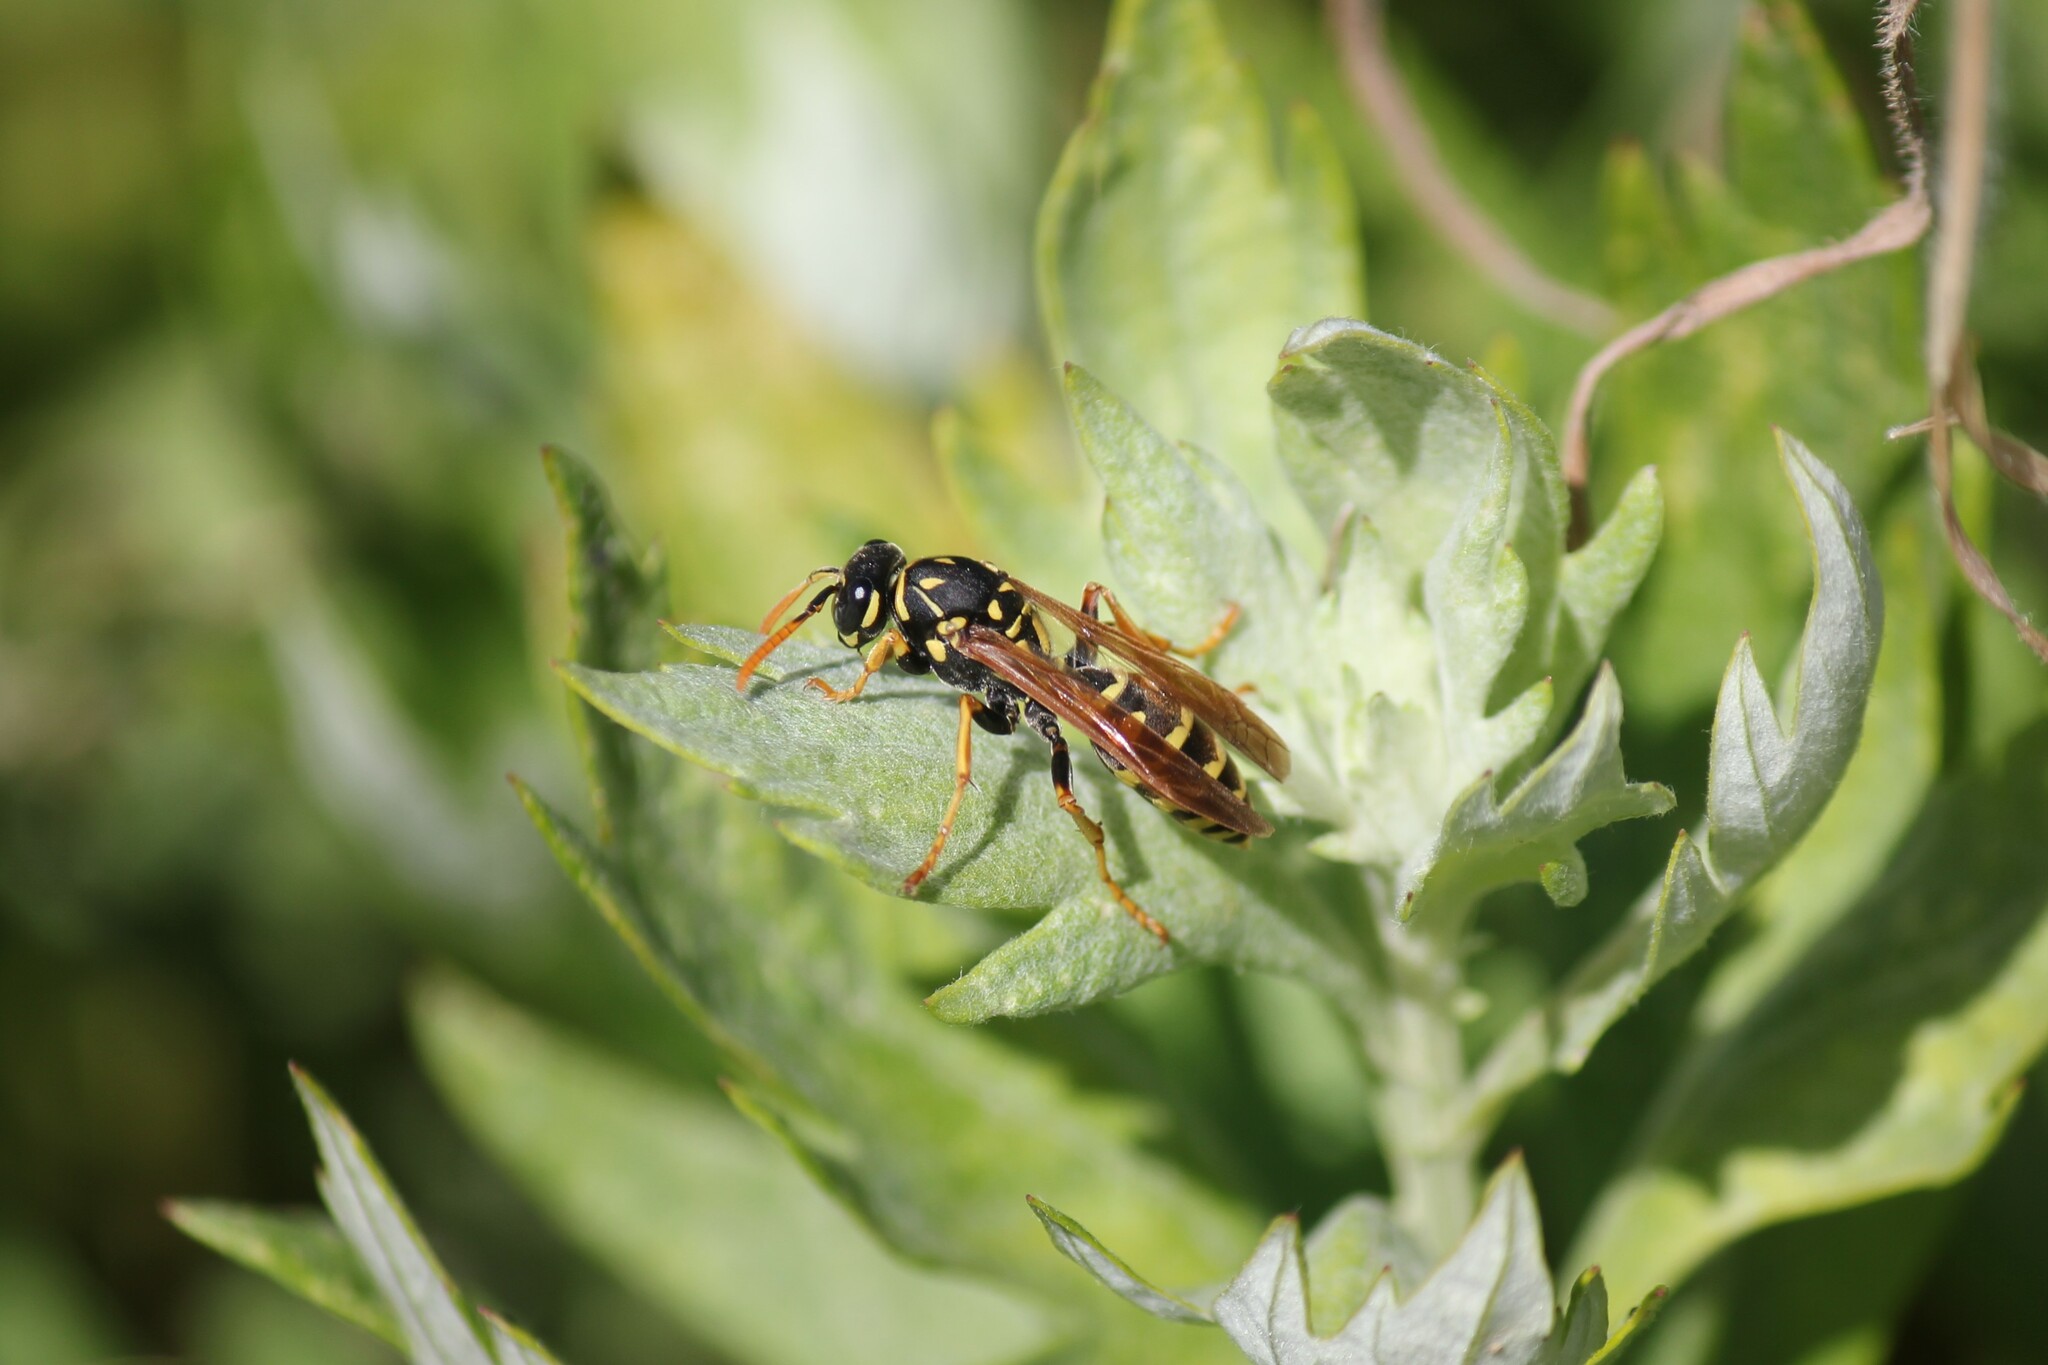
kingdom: Animalia
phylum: Arthropoda
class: Insecta
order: Hymenoptera
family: Eumenidae
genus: Polistes
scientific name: Polistes dominula
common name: Paper wasp
